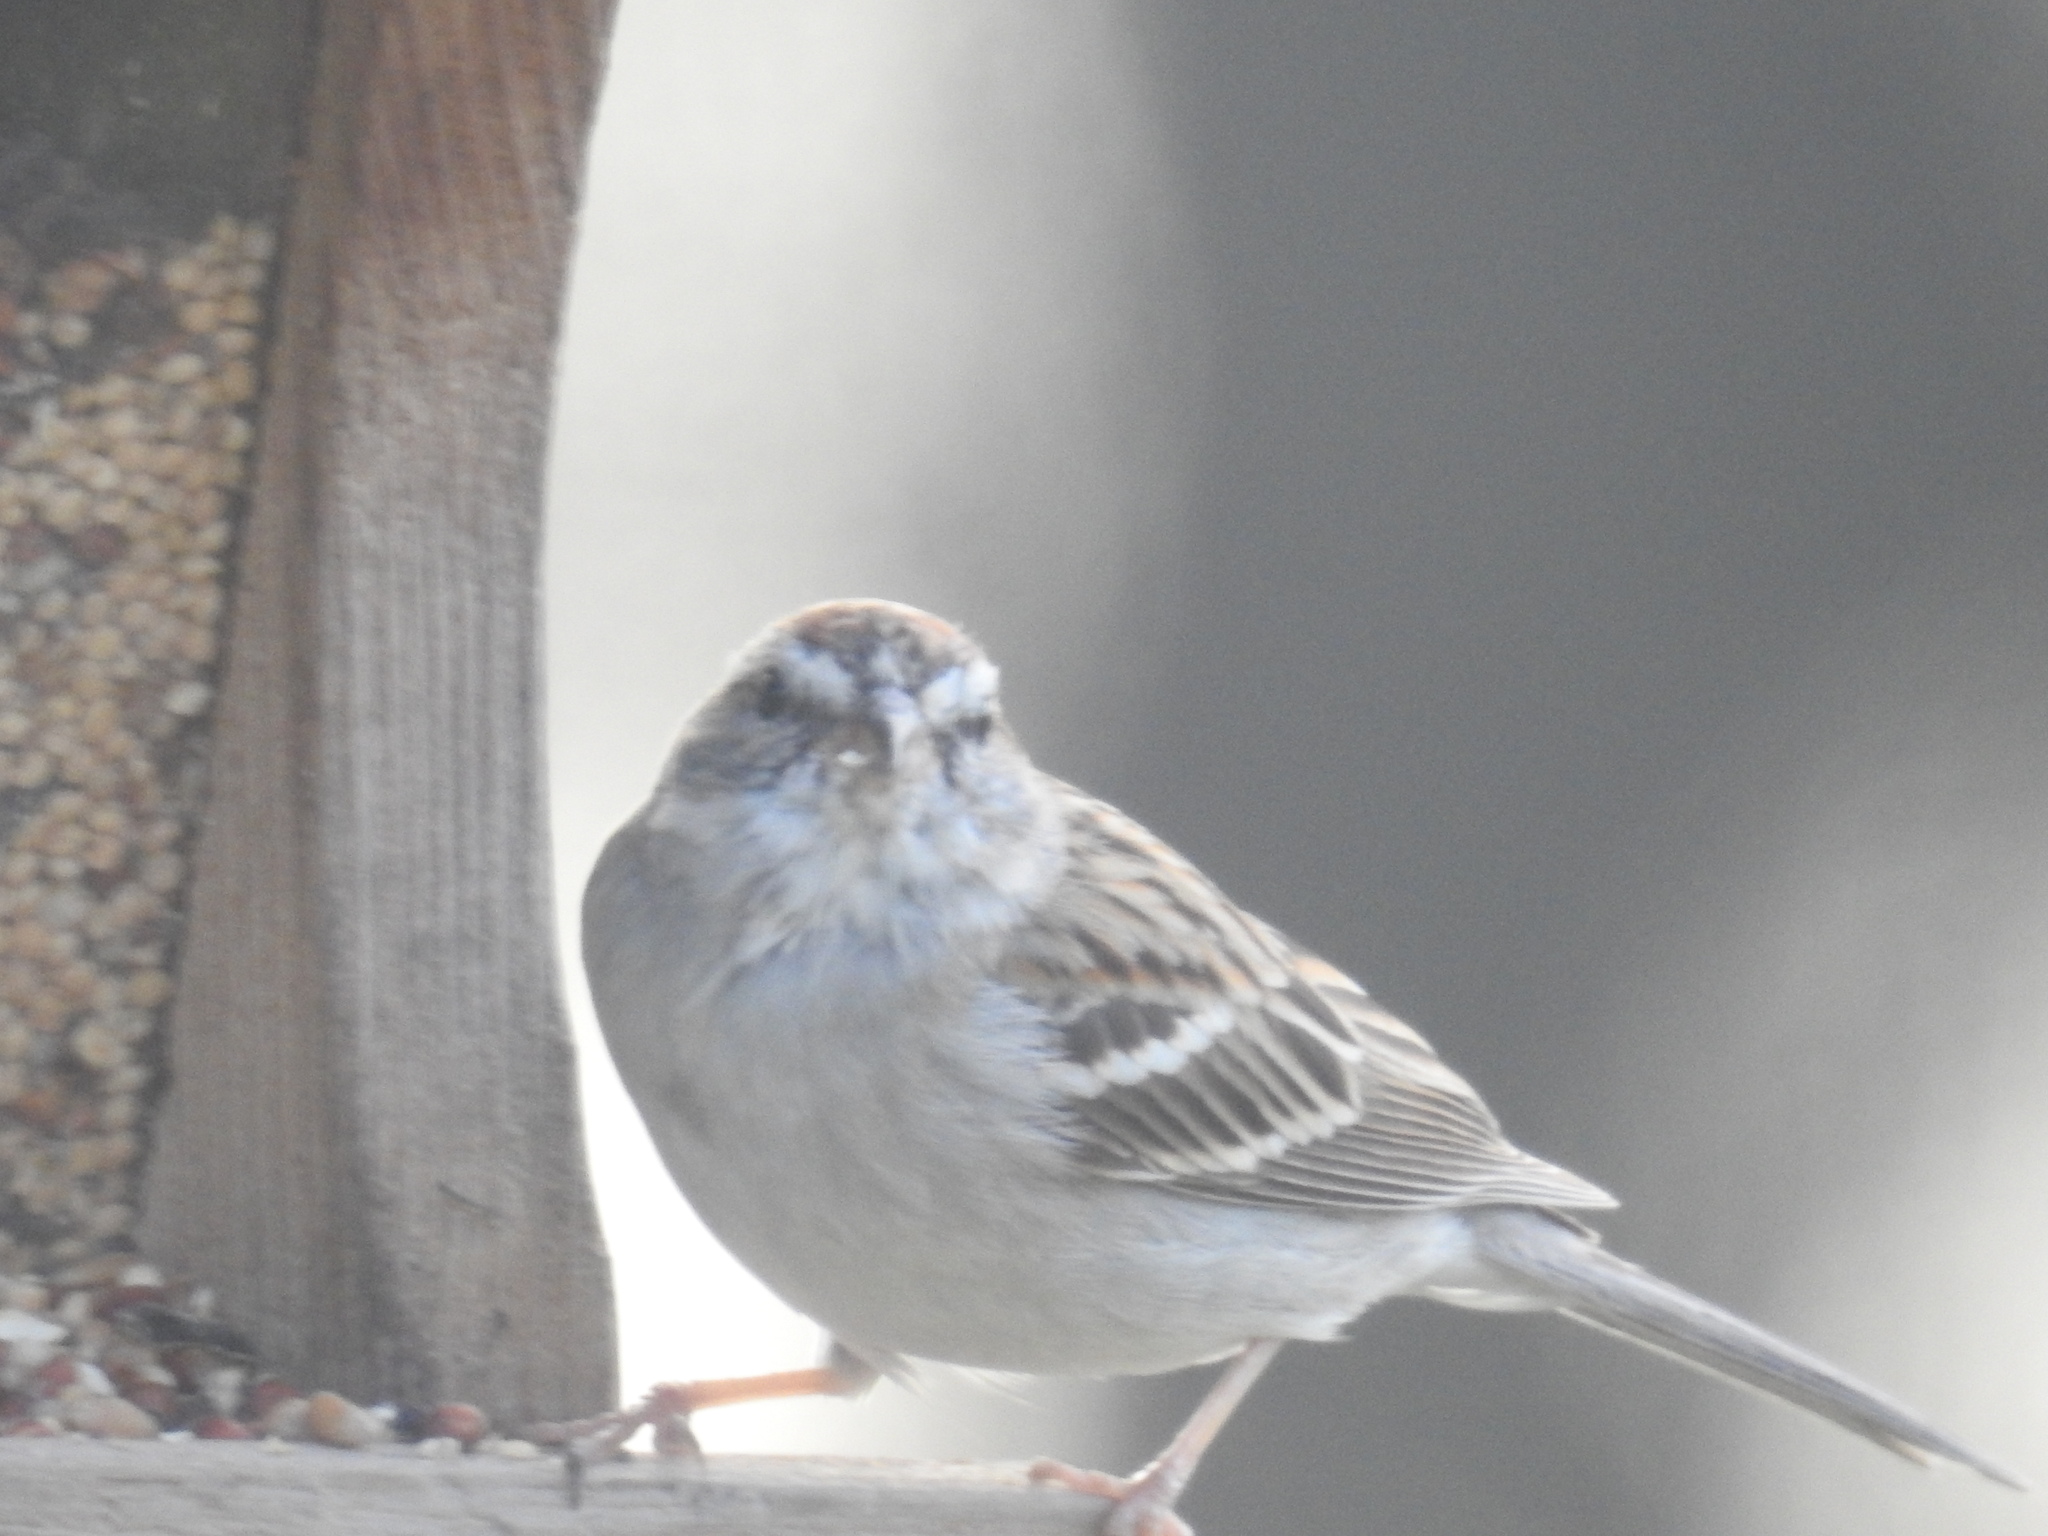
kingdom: Animalia
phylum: Chordata
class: Aves
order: Passeriformes
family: Passerellidae
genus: Spizella
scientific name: Spizella passerina
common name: Chipping sparrow
